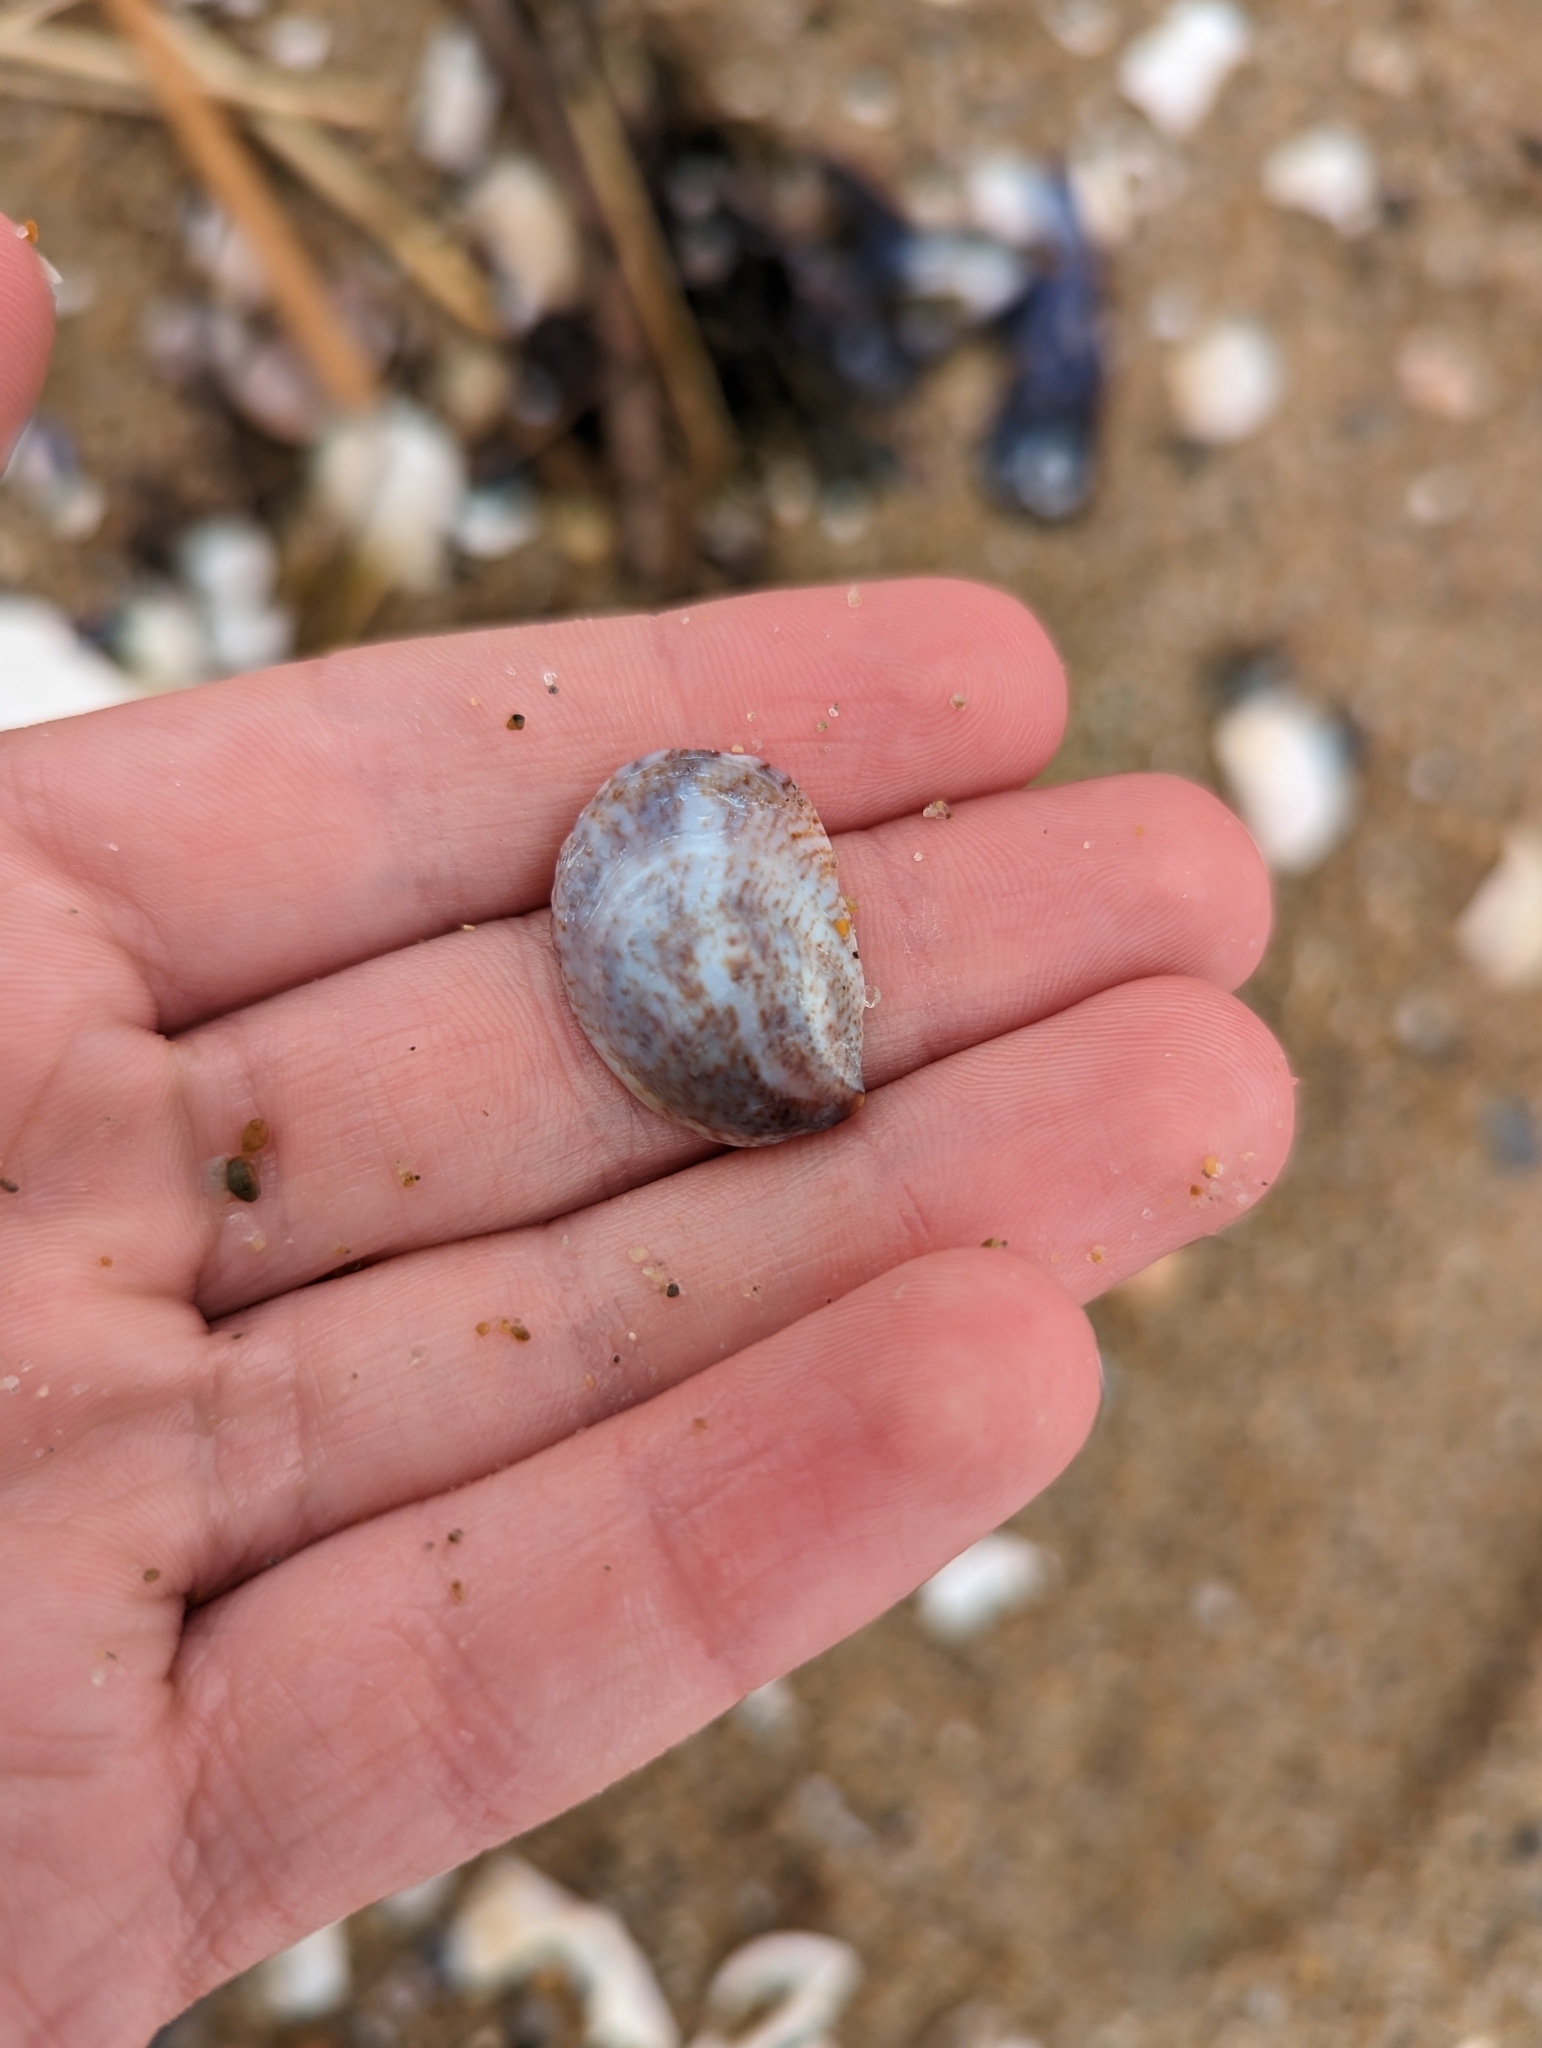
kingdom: Animalia
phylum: Mollusca
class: Gastropoda
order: Littorinimorpha
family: Calyptraeidae
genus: Crepidula
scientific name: Crepidula fornicata
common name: Slipper limpet
